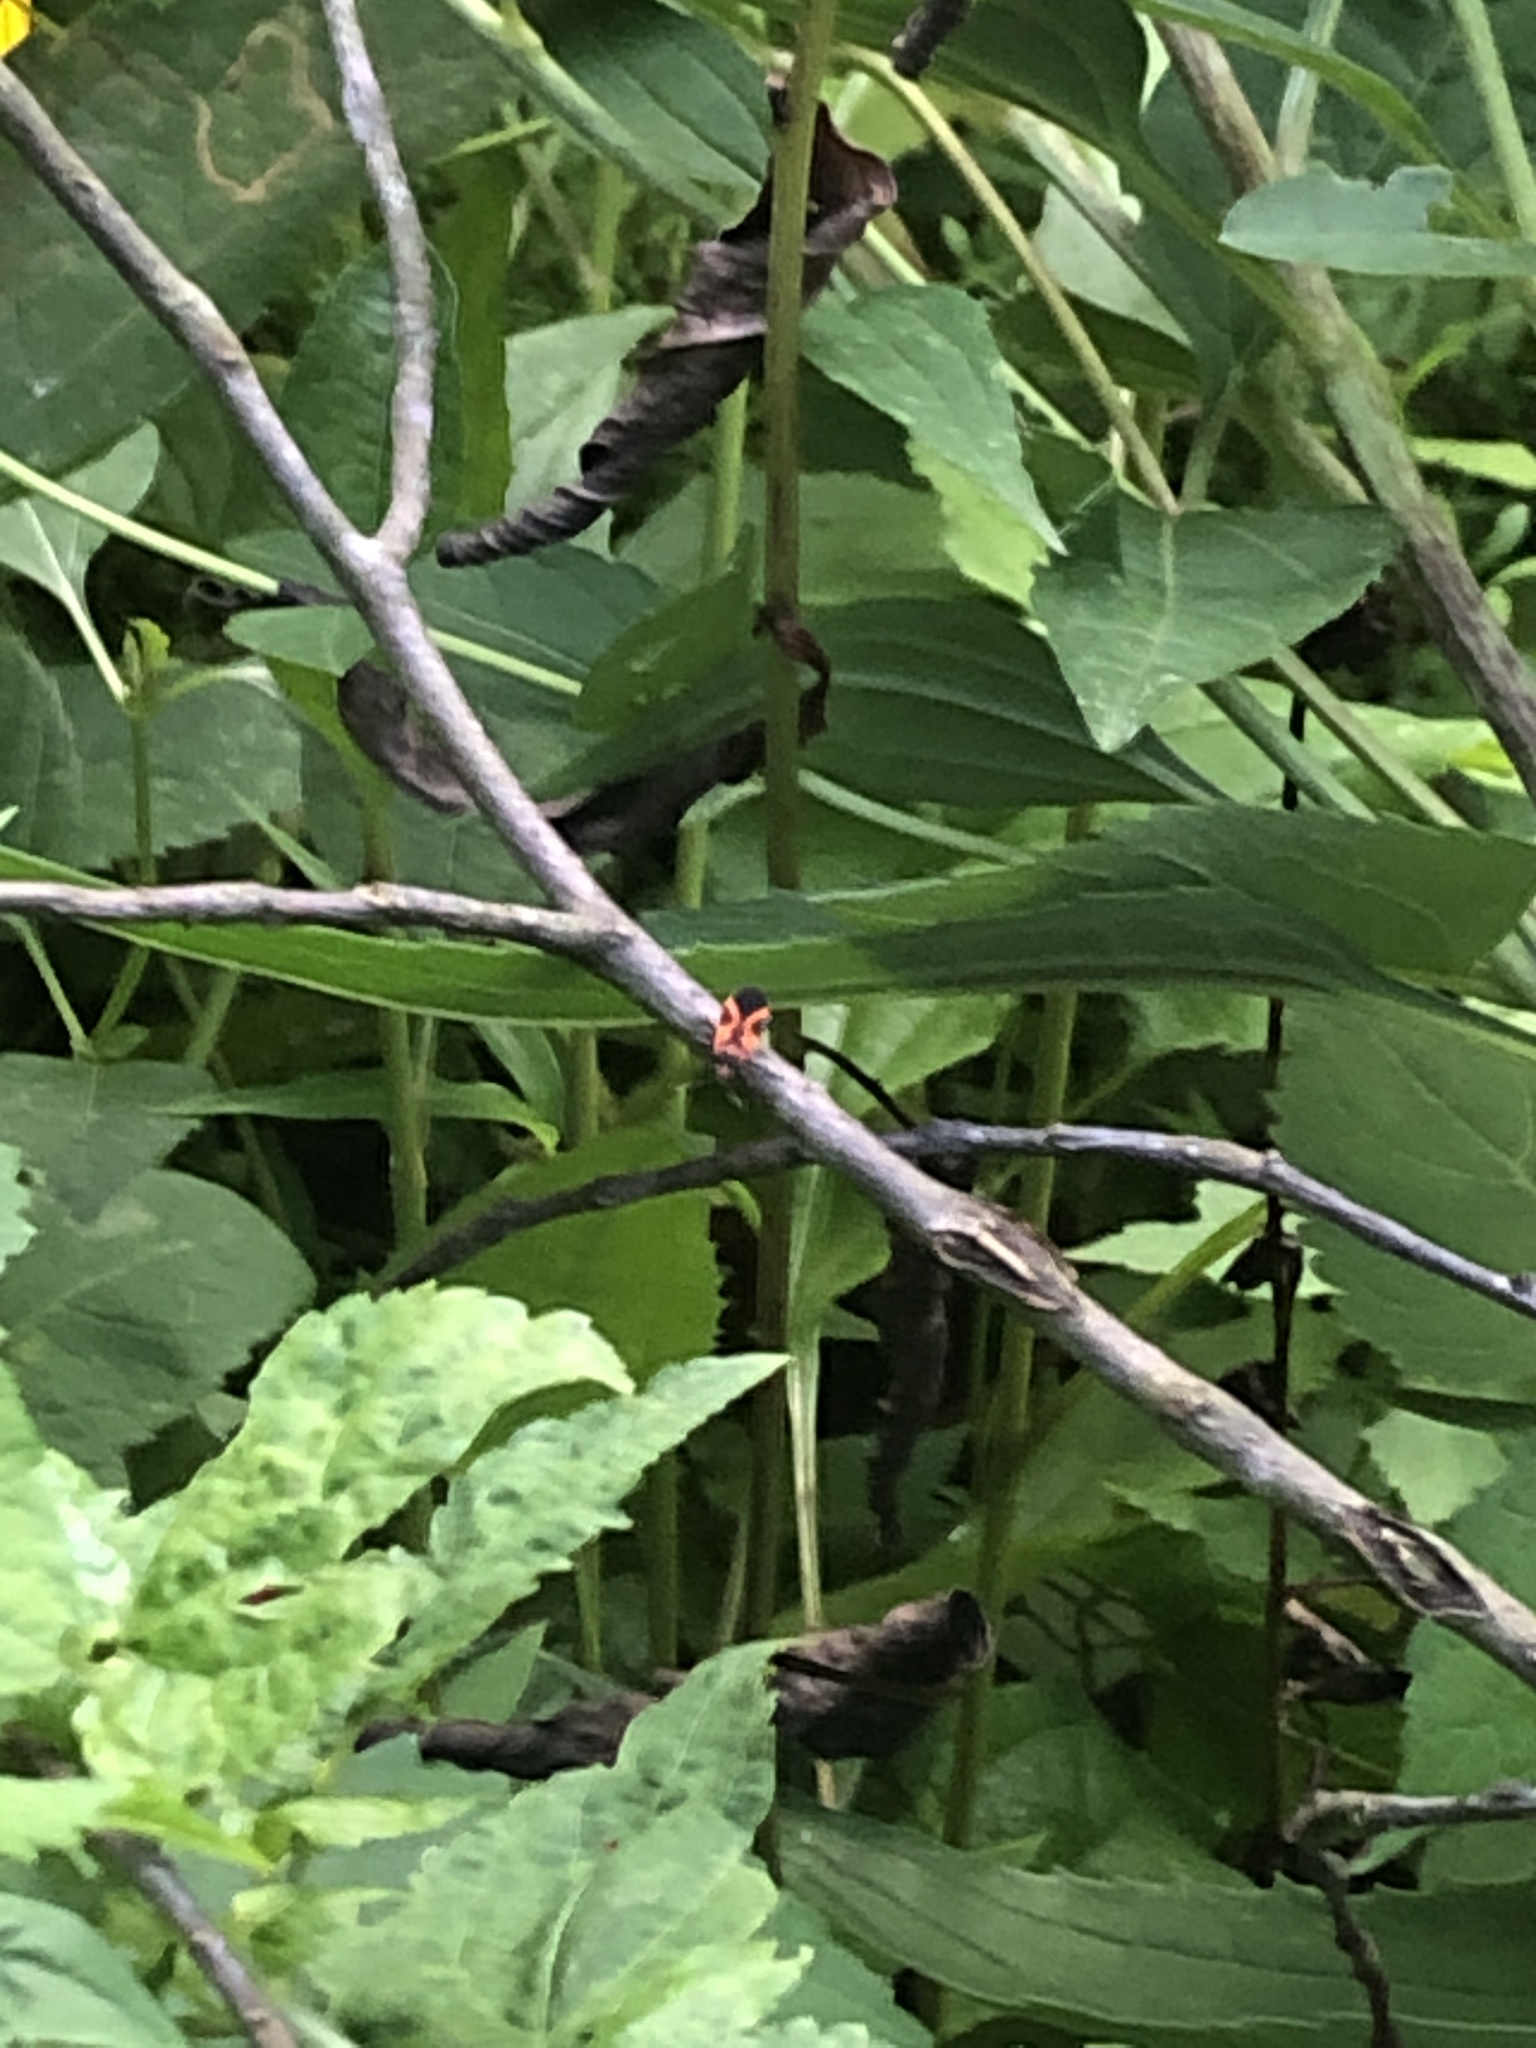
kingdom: Animalia
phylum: Arthropoda
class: Insecta
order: Hemiptera
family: Lygaeidae
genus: Lygaeus
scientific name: Lygaeus turcicus
